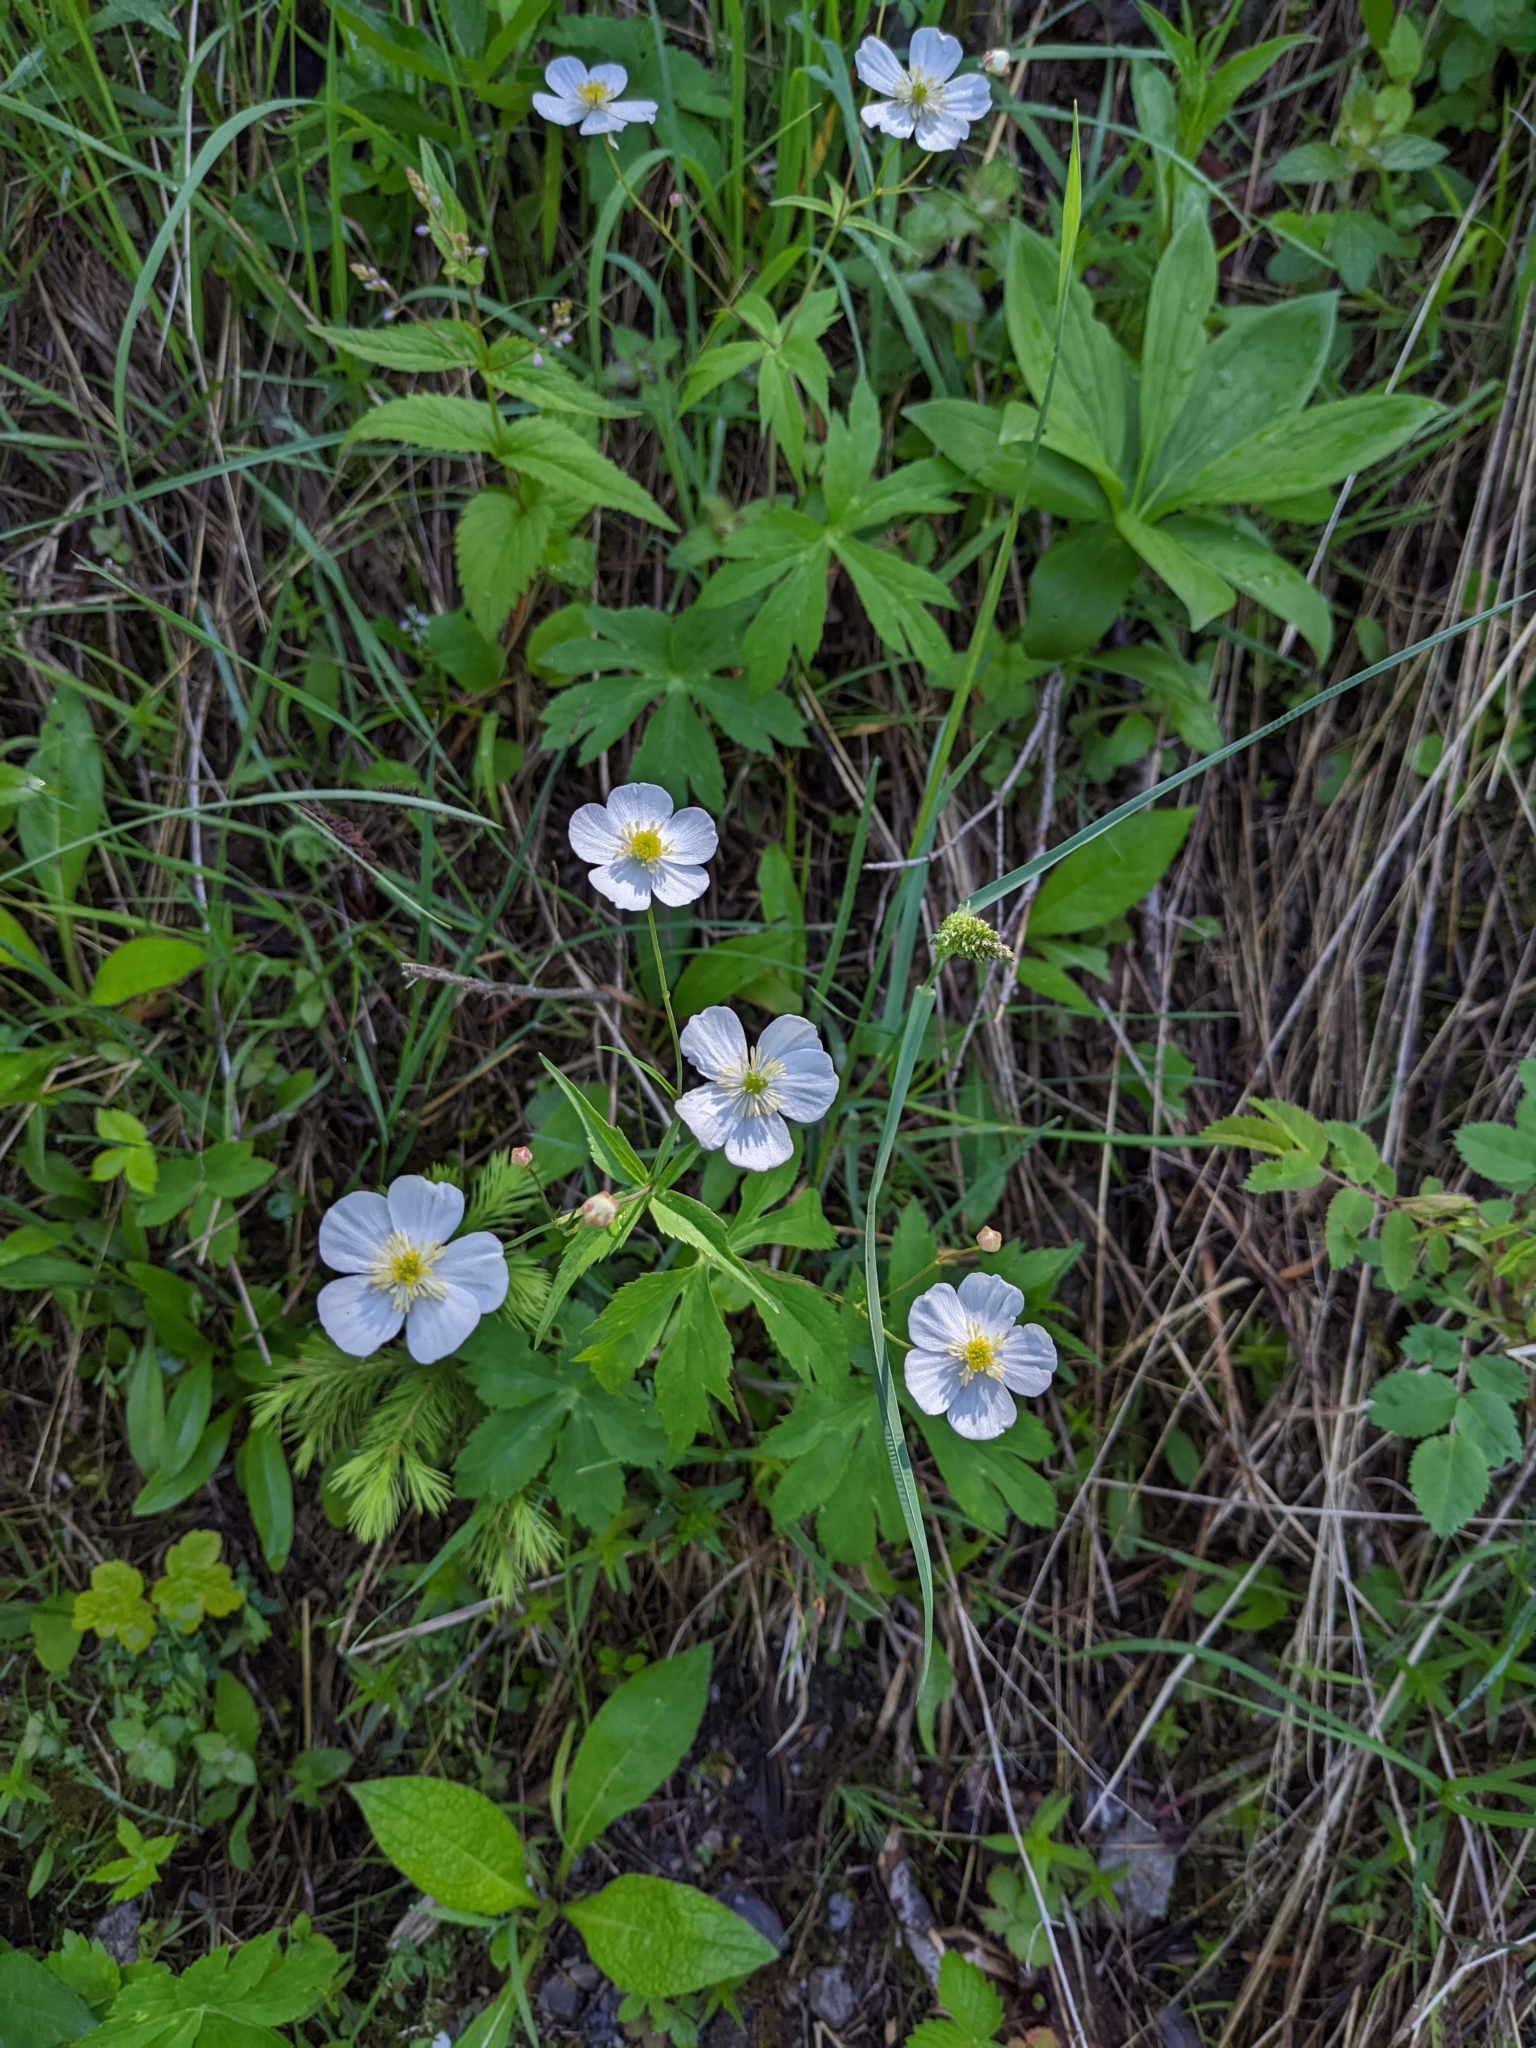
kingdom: Plantae
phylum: Tracheophyta
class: Magnoliopsida
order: Ranunculales
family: Ranunculaceae
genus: Ranunculus
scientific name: Ranunculus aconitifolius
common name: Aconite-leaved buttercup
